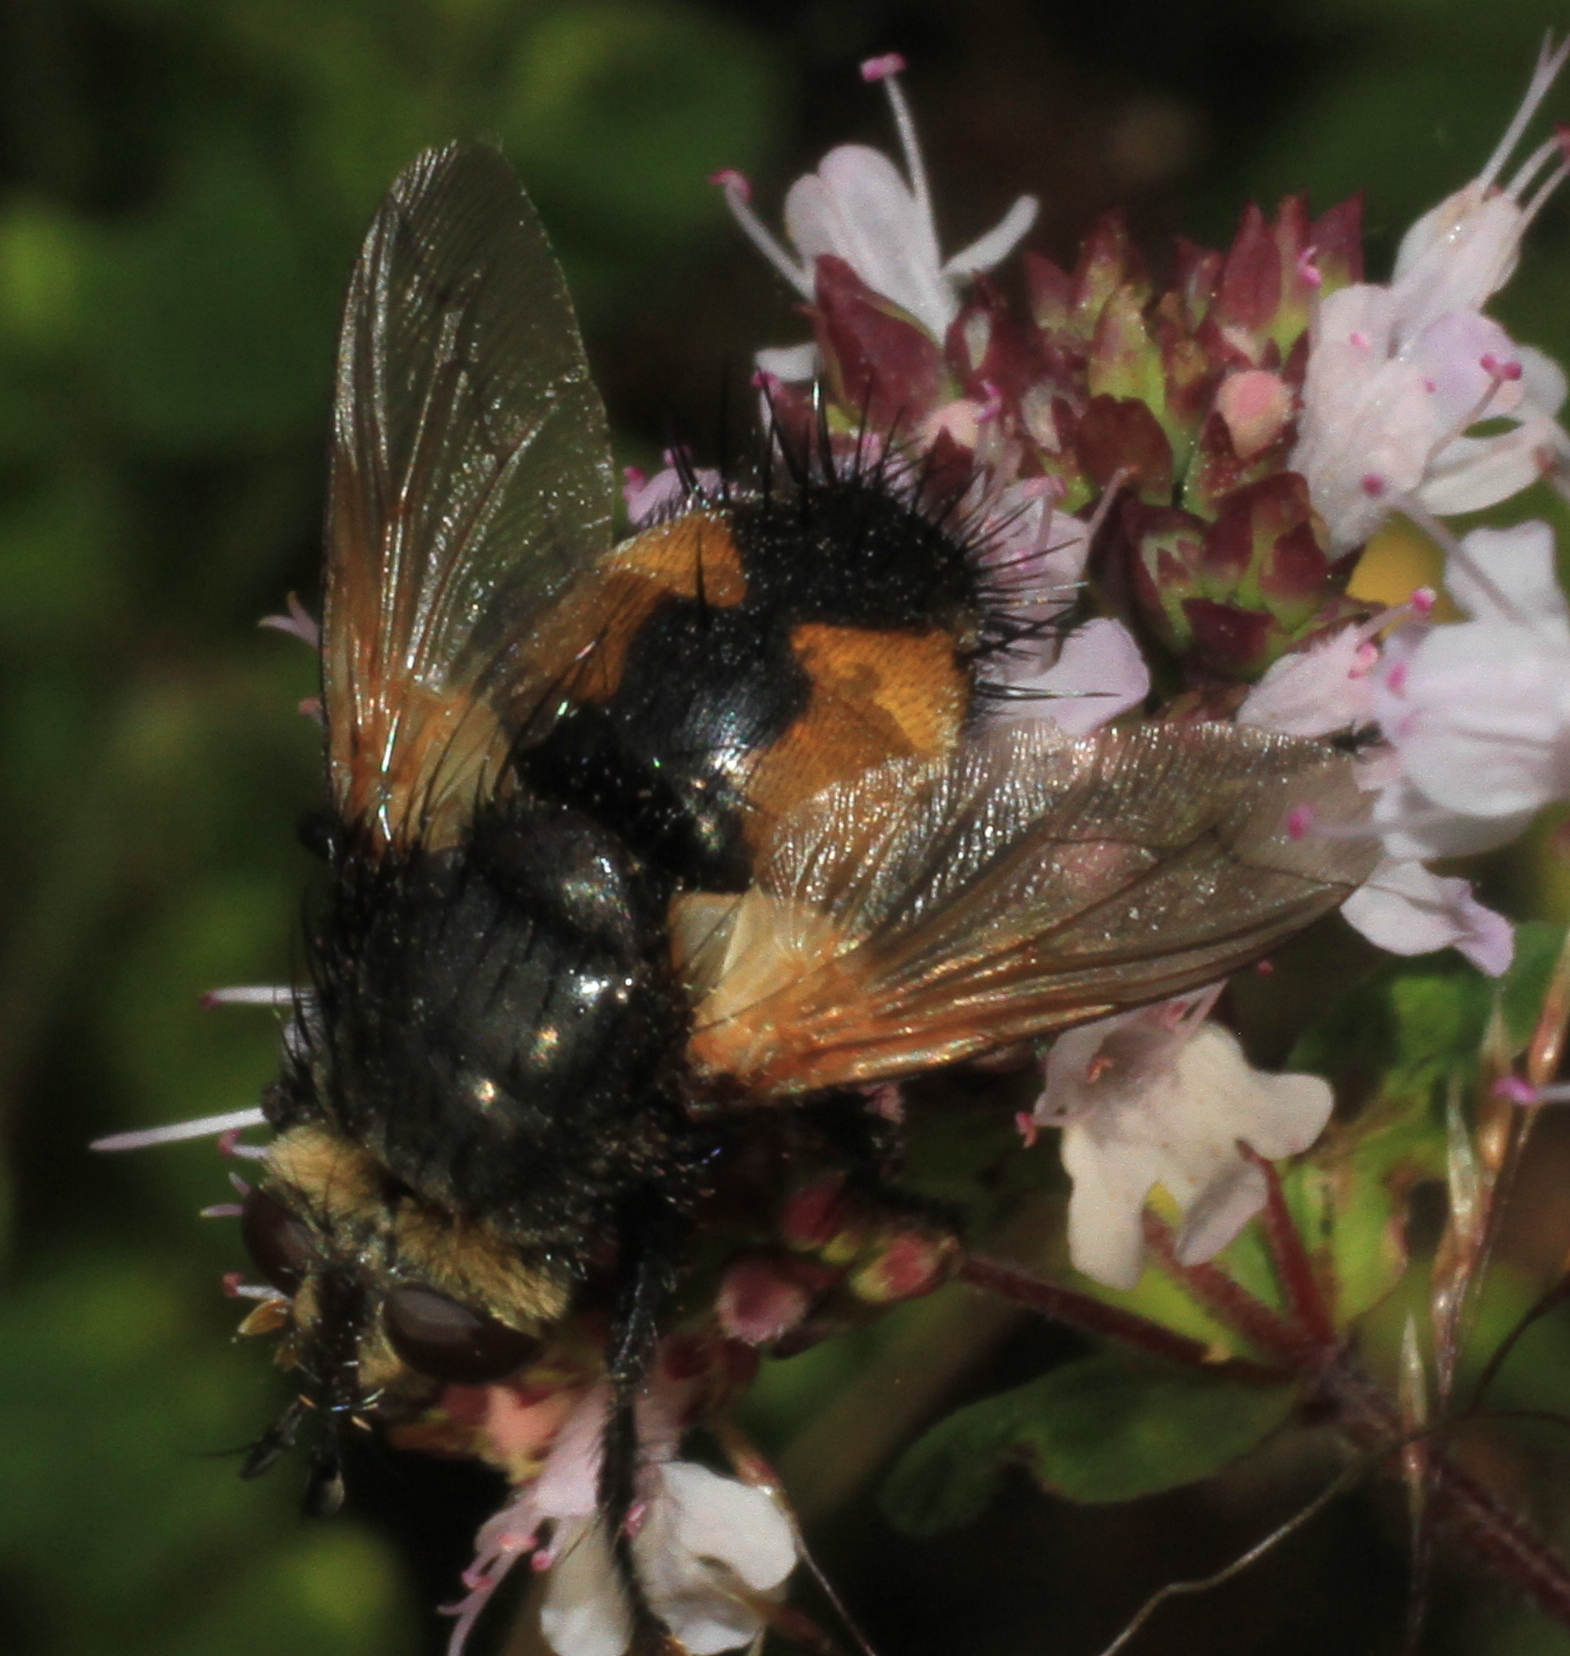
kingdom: Animalia
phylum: Arthropoda
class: Insecta
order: Diptera
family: Tachinidae
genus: Nowickia
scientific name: Nowickia ferox
